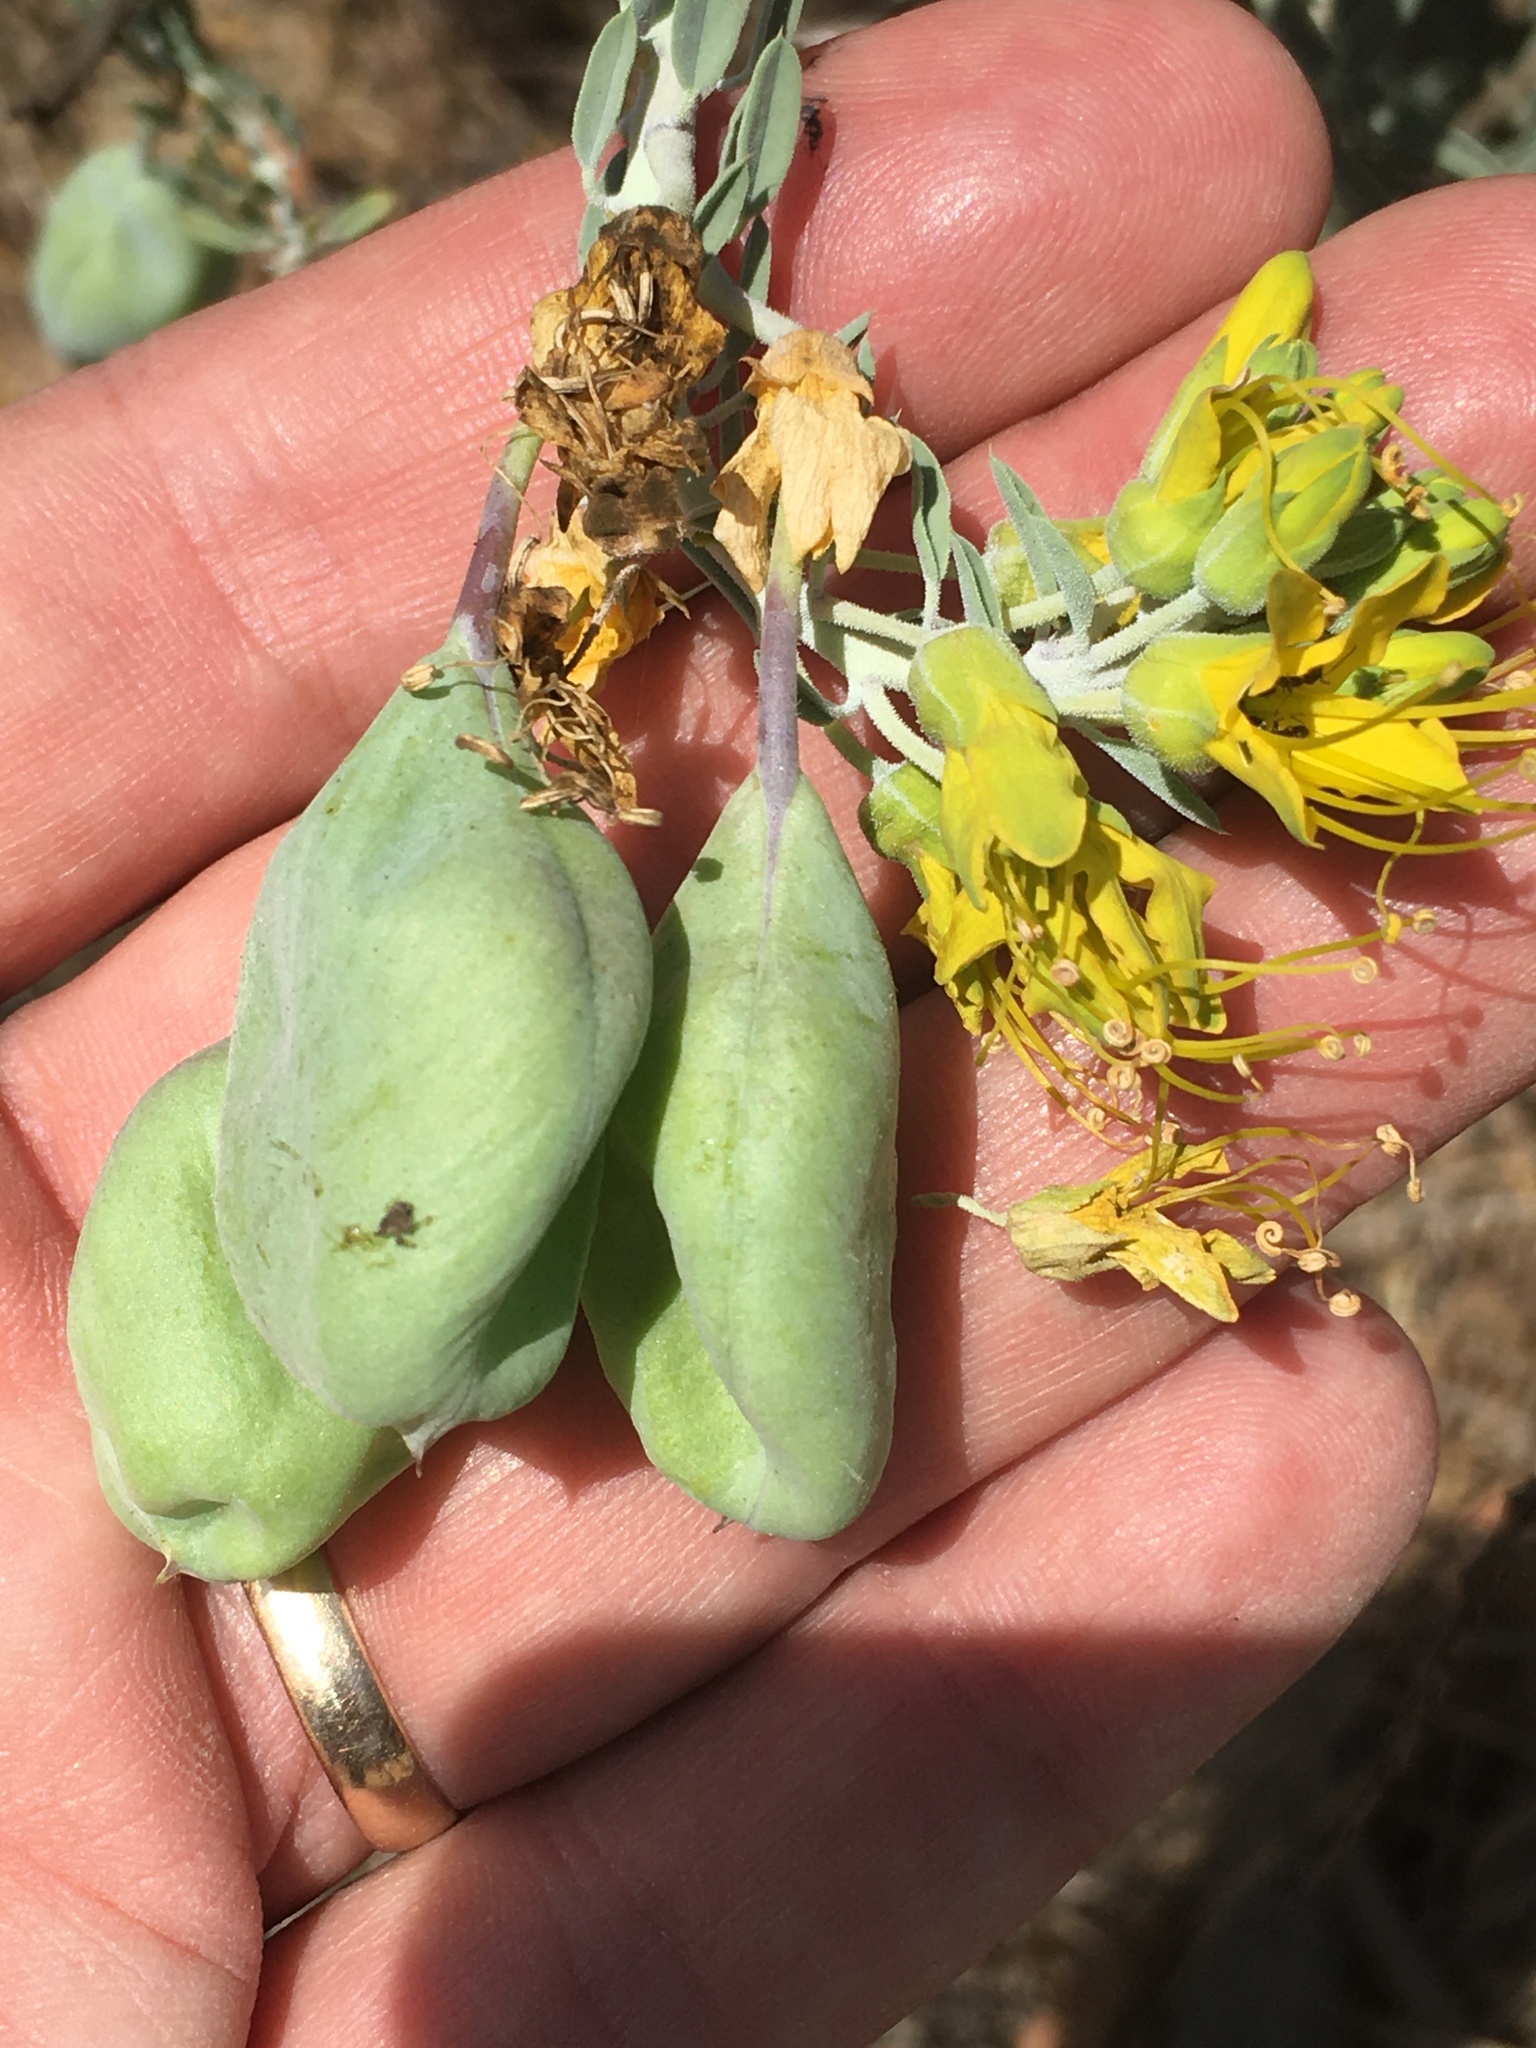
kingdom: Plantae
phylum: Tracheophyta
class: Magnoliopsida
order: Brassicales
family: Cleomaceae
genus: Cleomella
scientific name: Cleomella arborea
